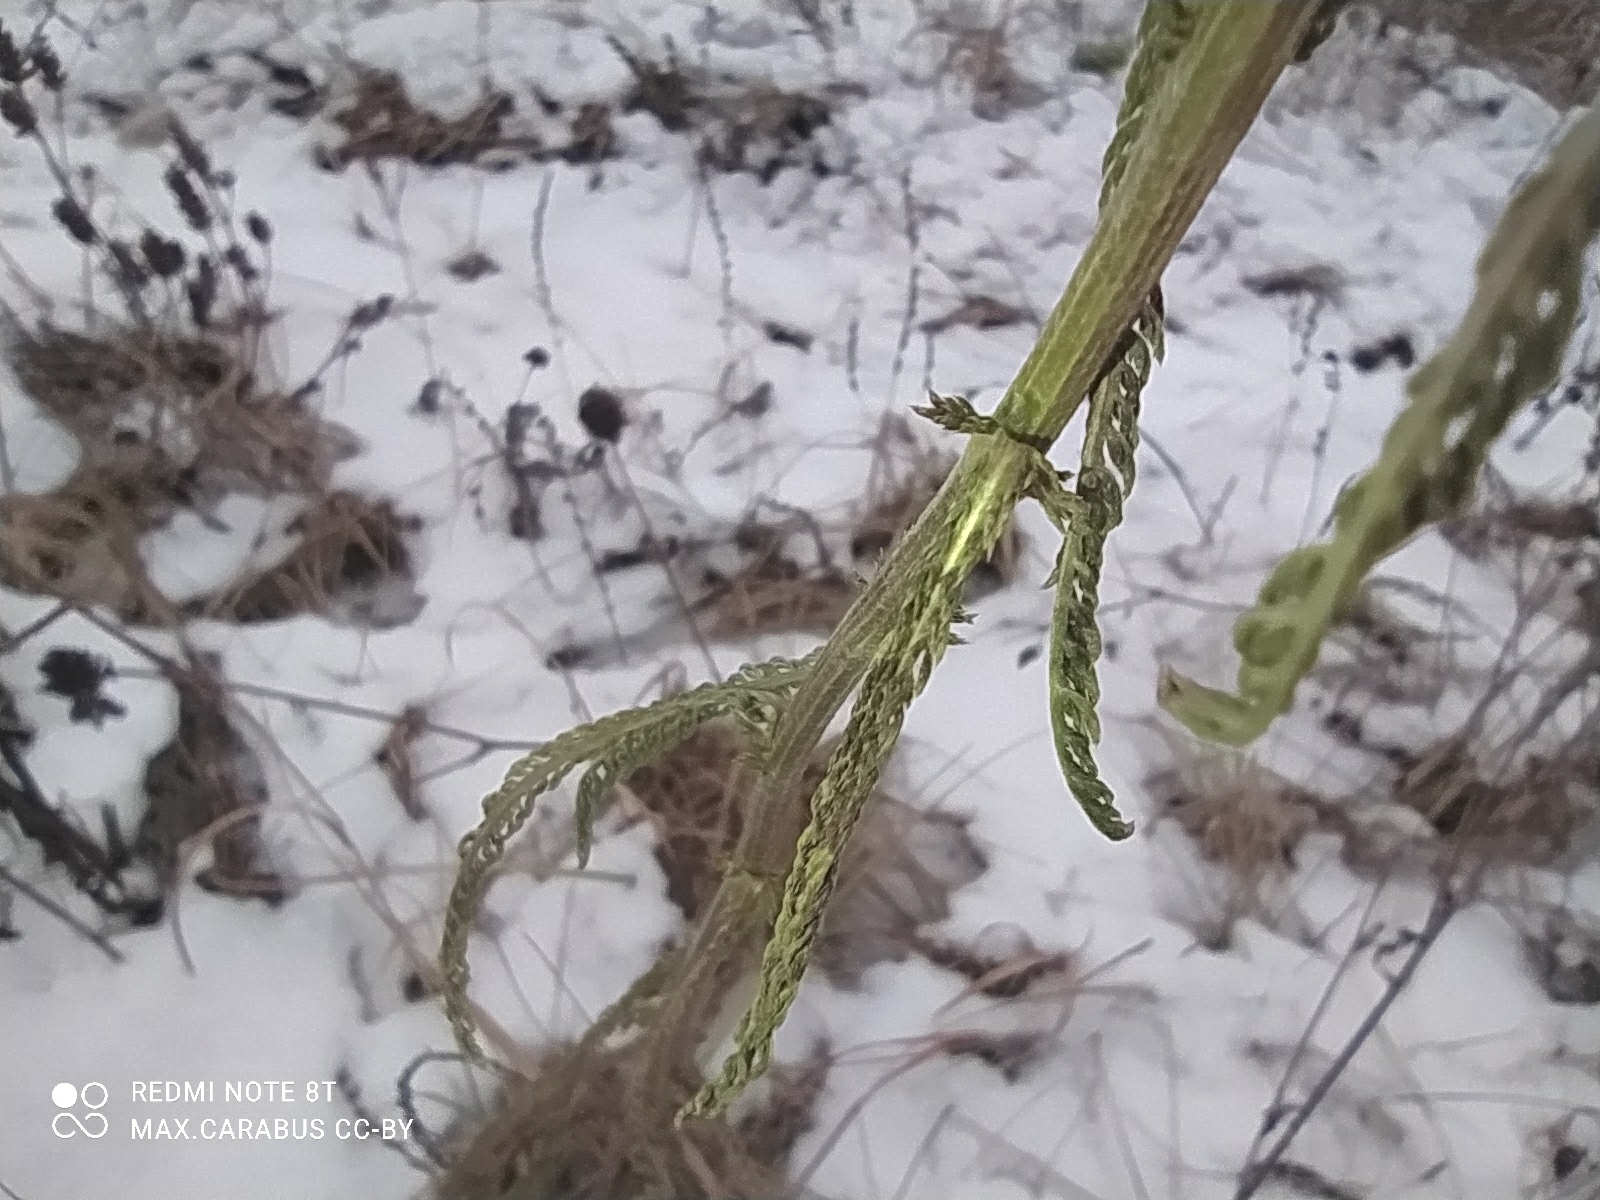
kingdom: Plantae
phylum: Tracheophyta
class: Magnoliopsida
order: Asterales
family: Asteraceae
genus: Achillea
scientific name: Achillea millefolium
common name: Yarrow
